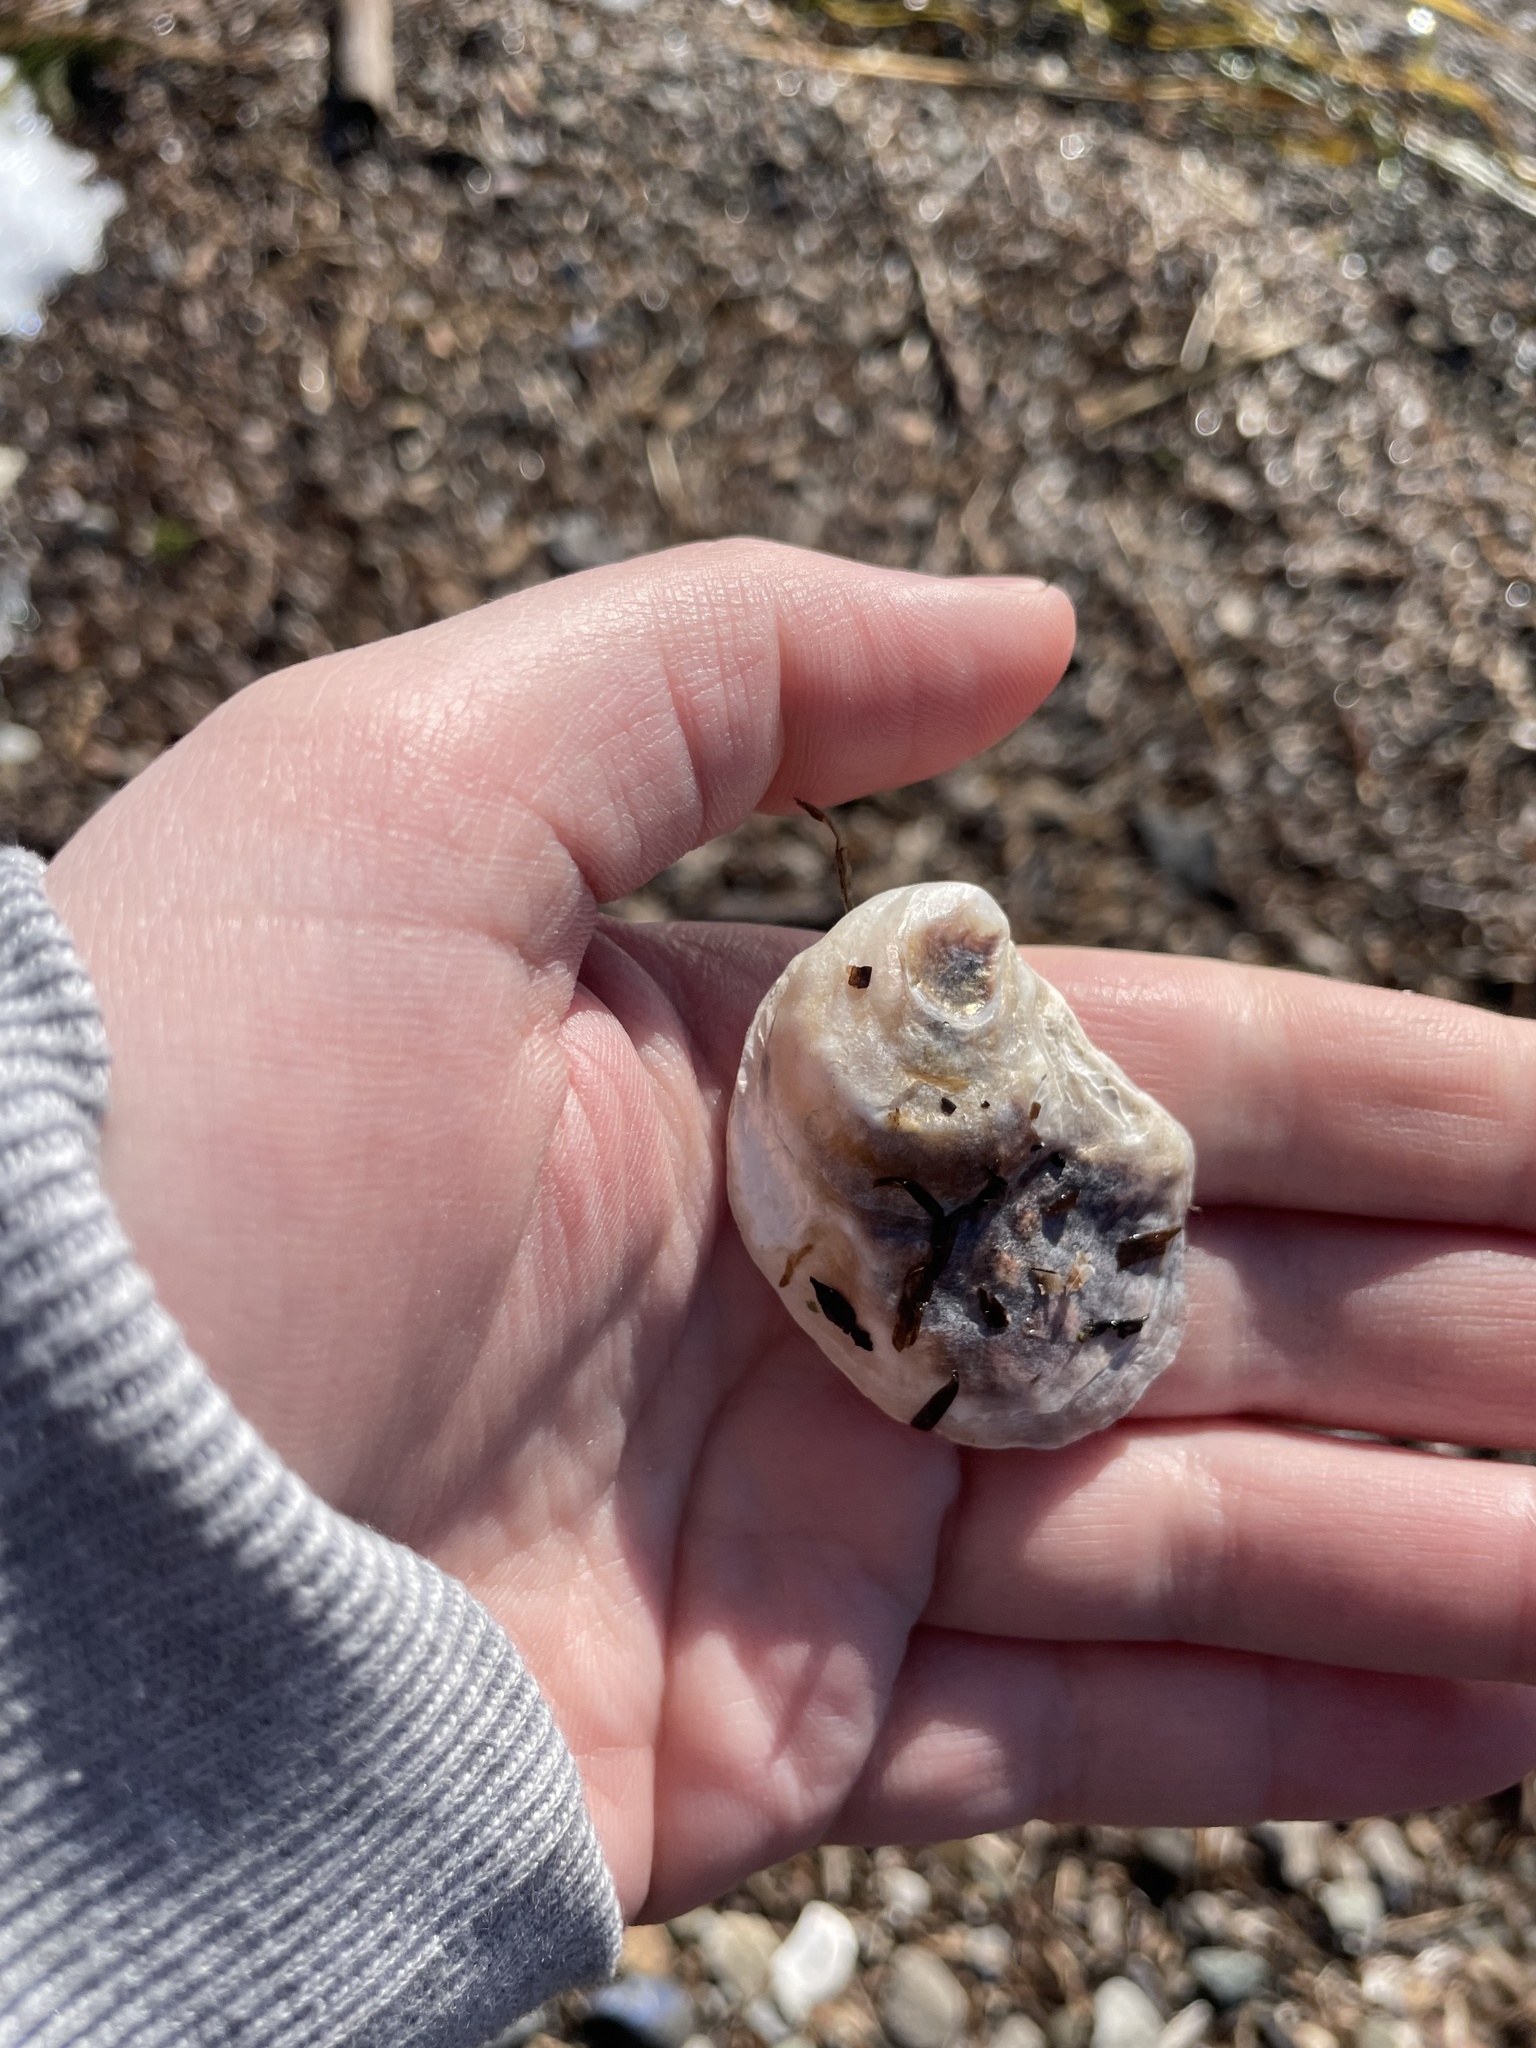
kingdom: Animalia
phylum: Mollusca
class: Bivalvia
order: Ostreida
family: Ostreidae
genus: Crassostrea
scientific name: Crassostrea virginica
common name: American oyster
